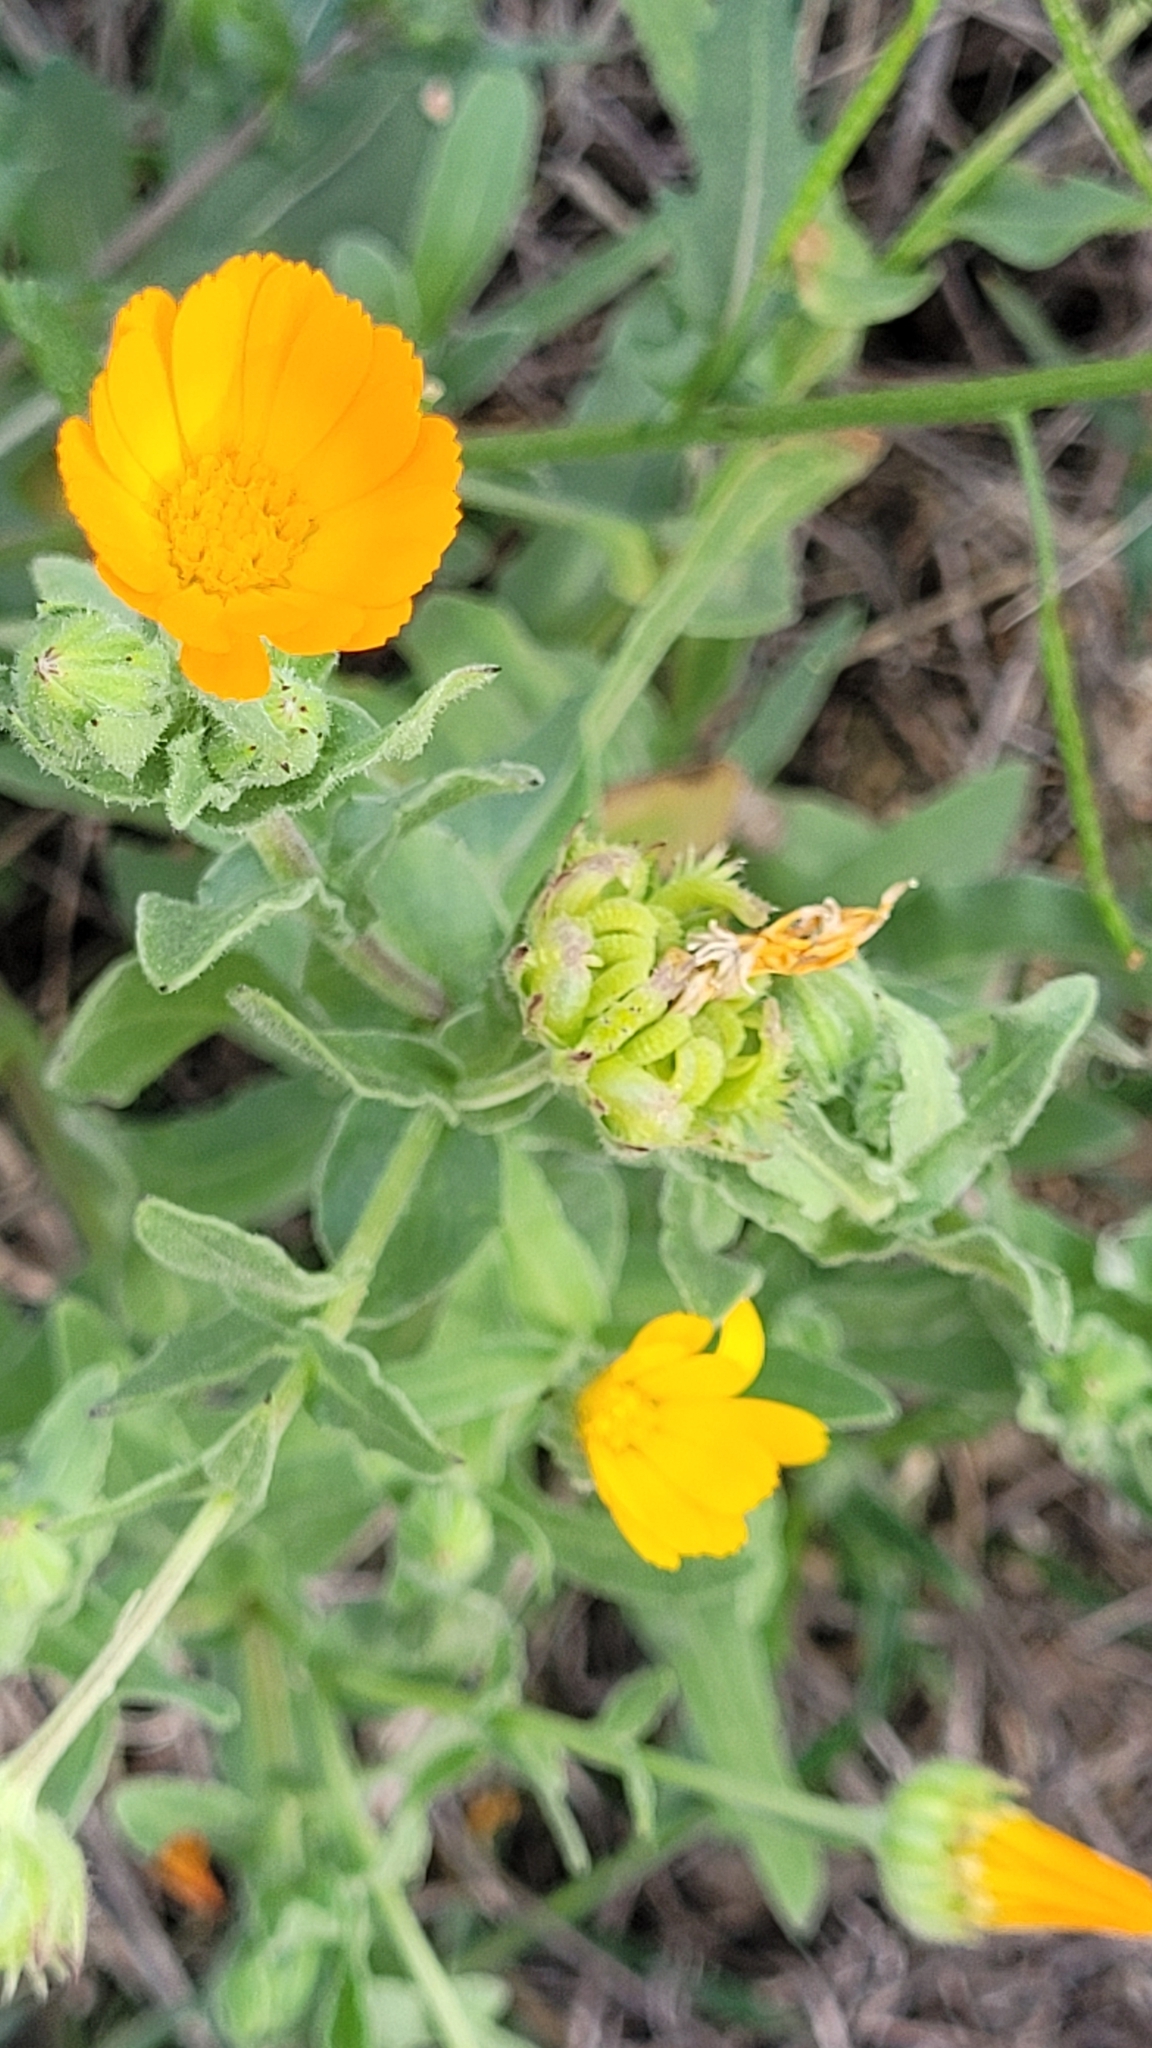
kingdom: Plantae
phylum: Tracheophyta
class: Magnoliopsida
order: Asterales
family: Asteraceae
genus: Calendula
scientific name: Calendula arvensis
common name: Field marigold
